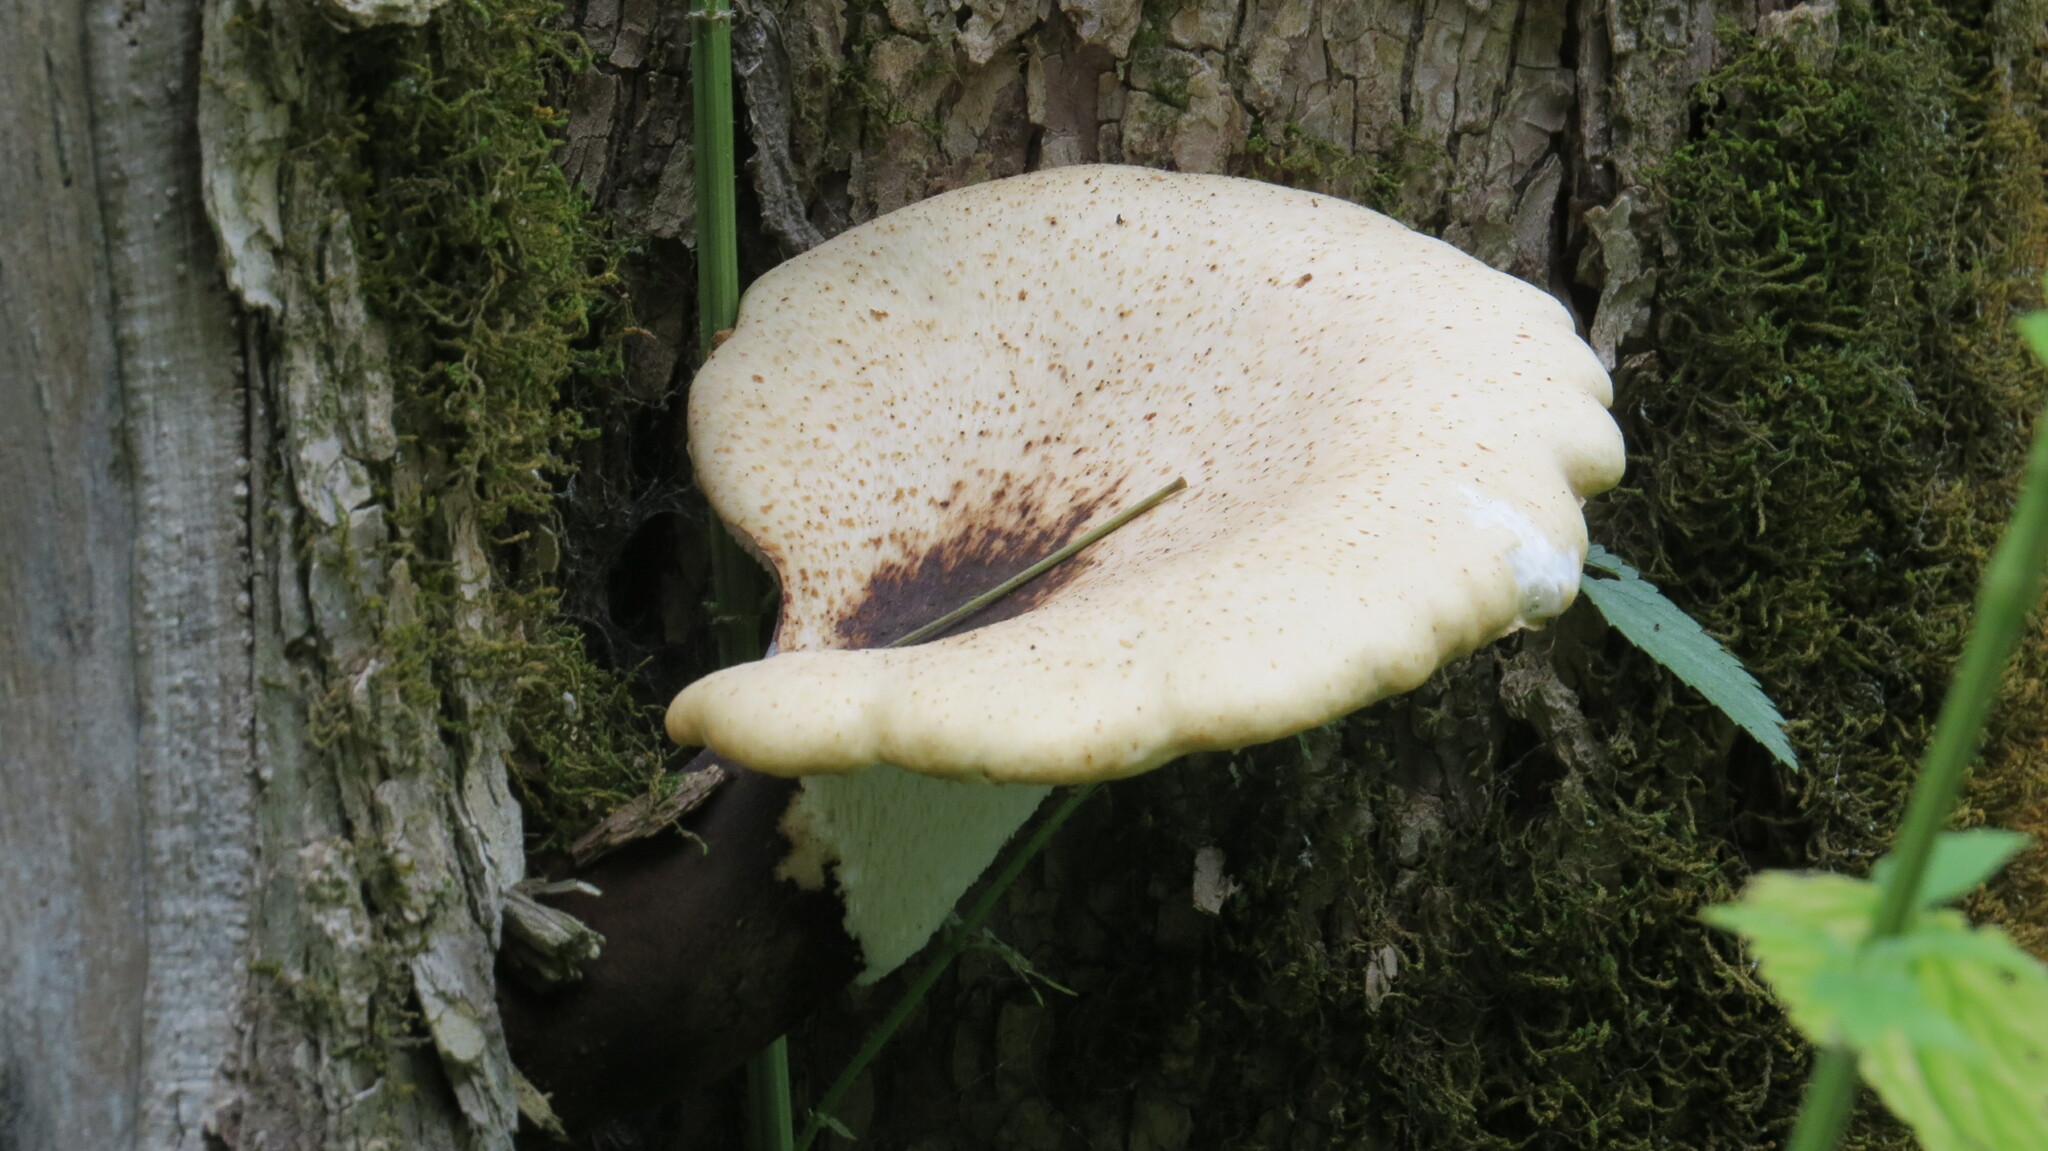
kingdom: Fungi
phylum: Basidiomycota
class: Agaricomycetes
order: Polyporales
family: Polyporaceae
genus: Cerioporus
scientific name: Cerioporus squamosus
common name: Dryad's saddle
